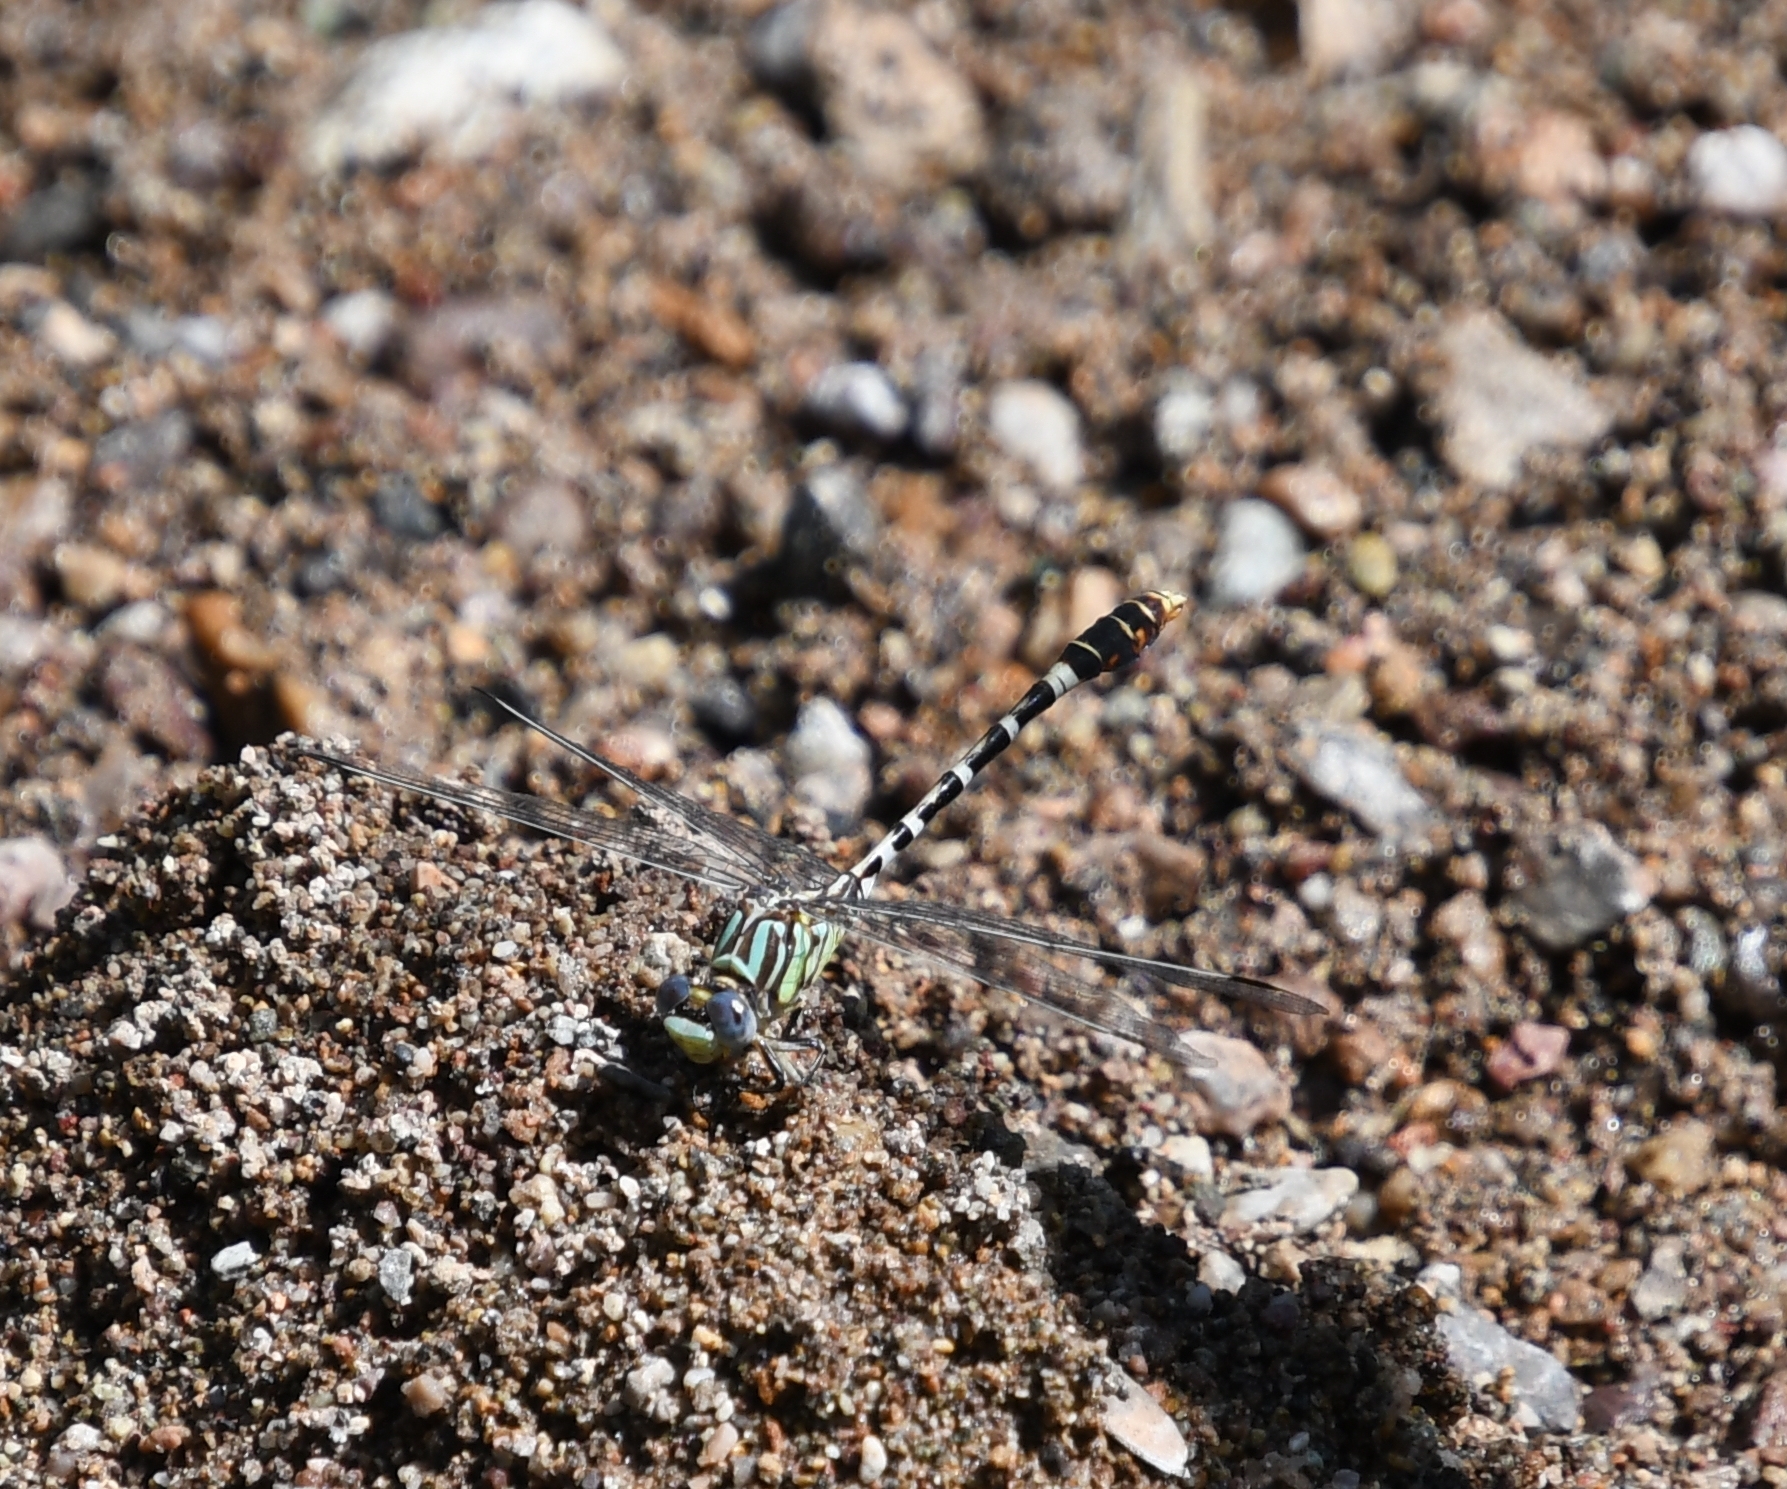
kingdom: Animalia
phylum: Arthropoda
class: Insecta
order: Odonata
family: Gomphidae
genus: Erpetogomphus
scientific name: Erpetogomphus lampropeltis
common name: Serpent ringtail
